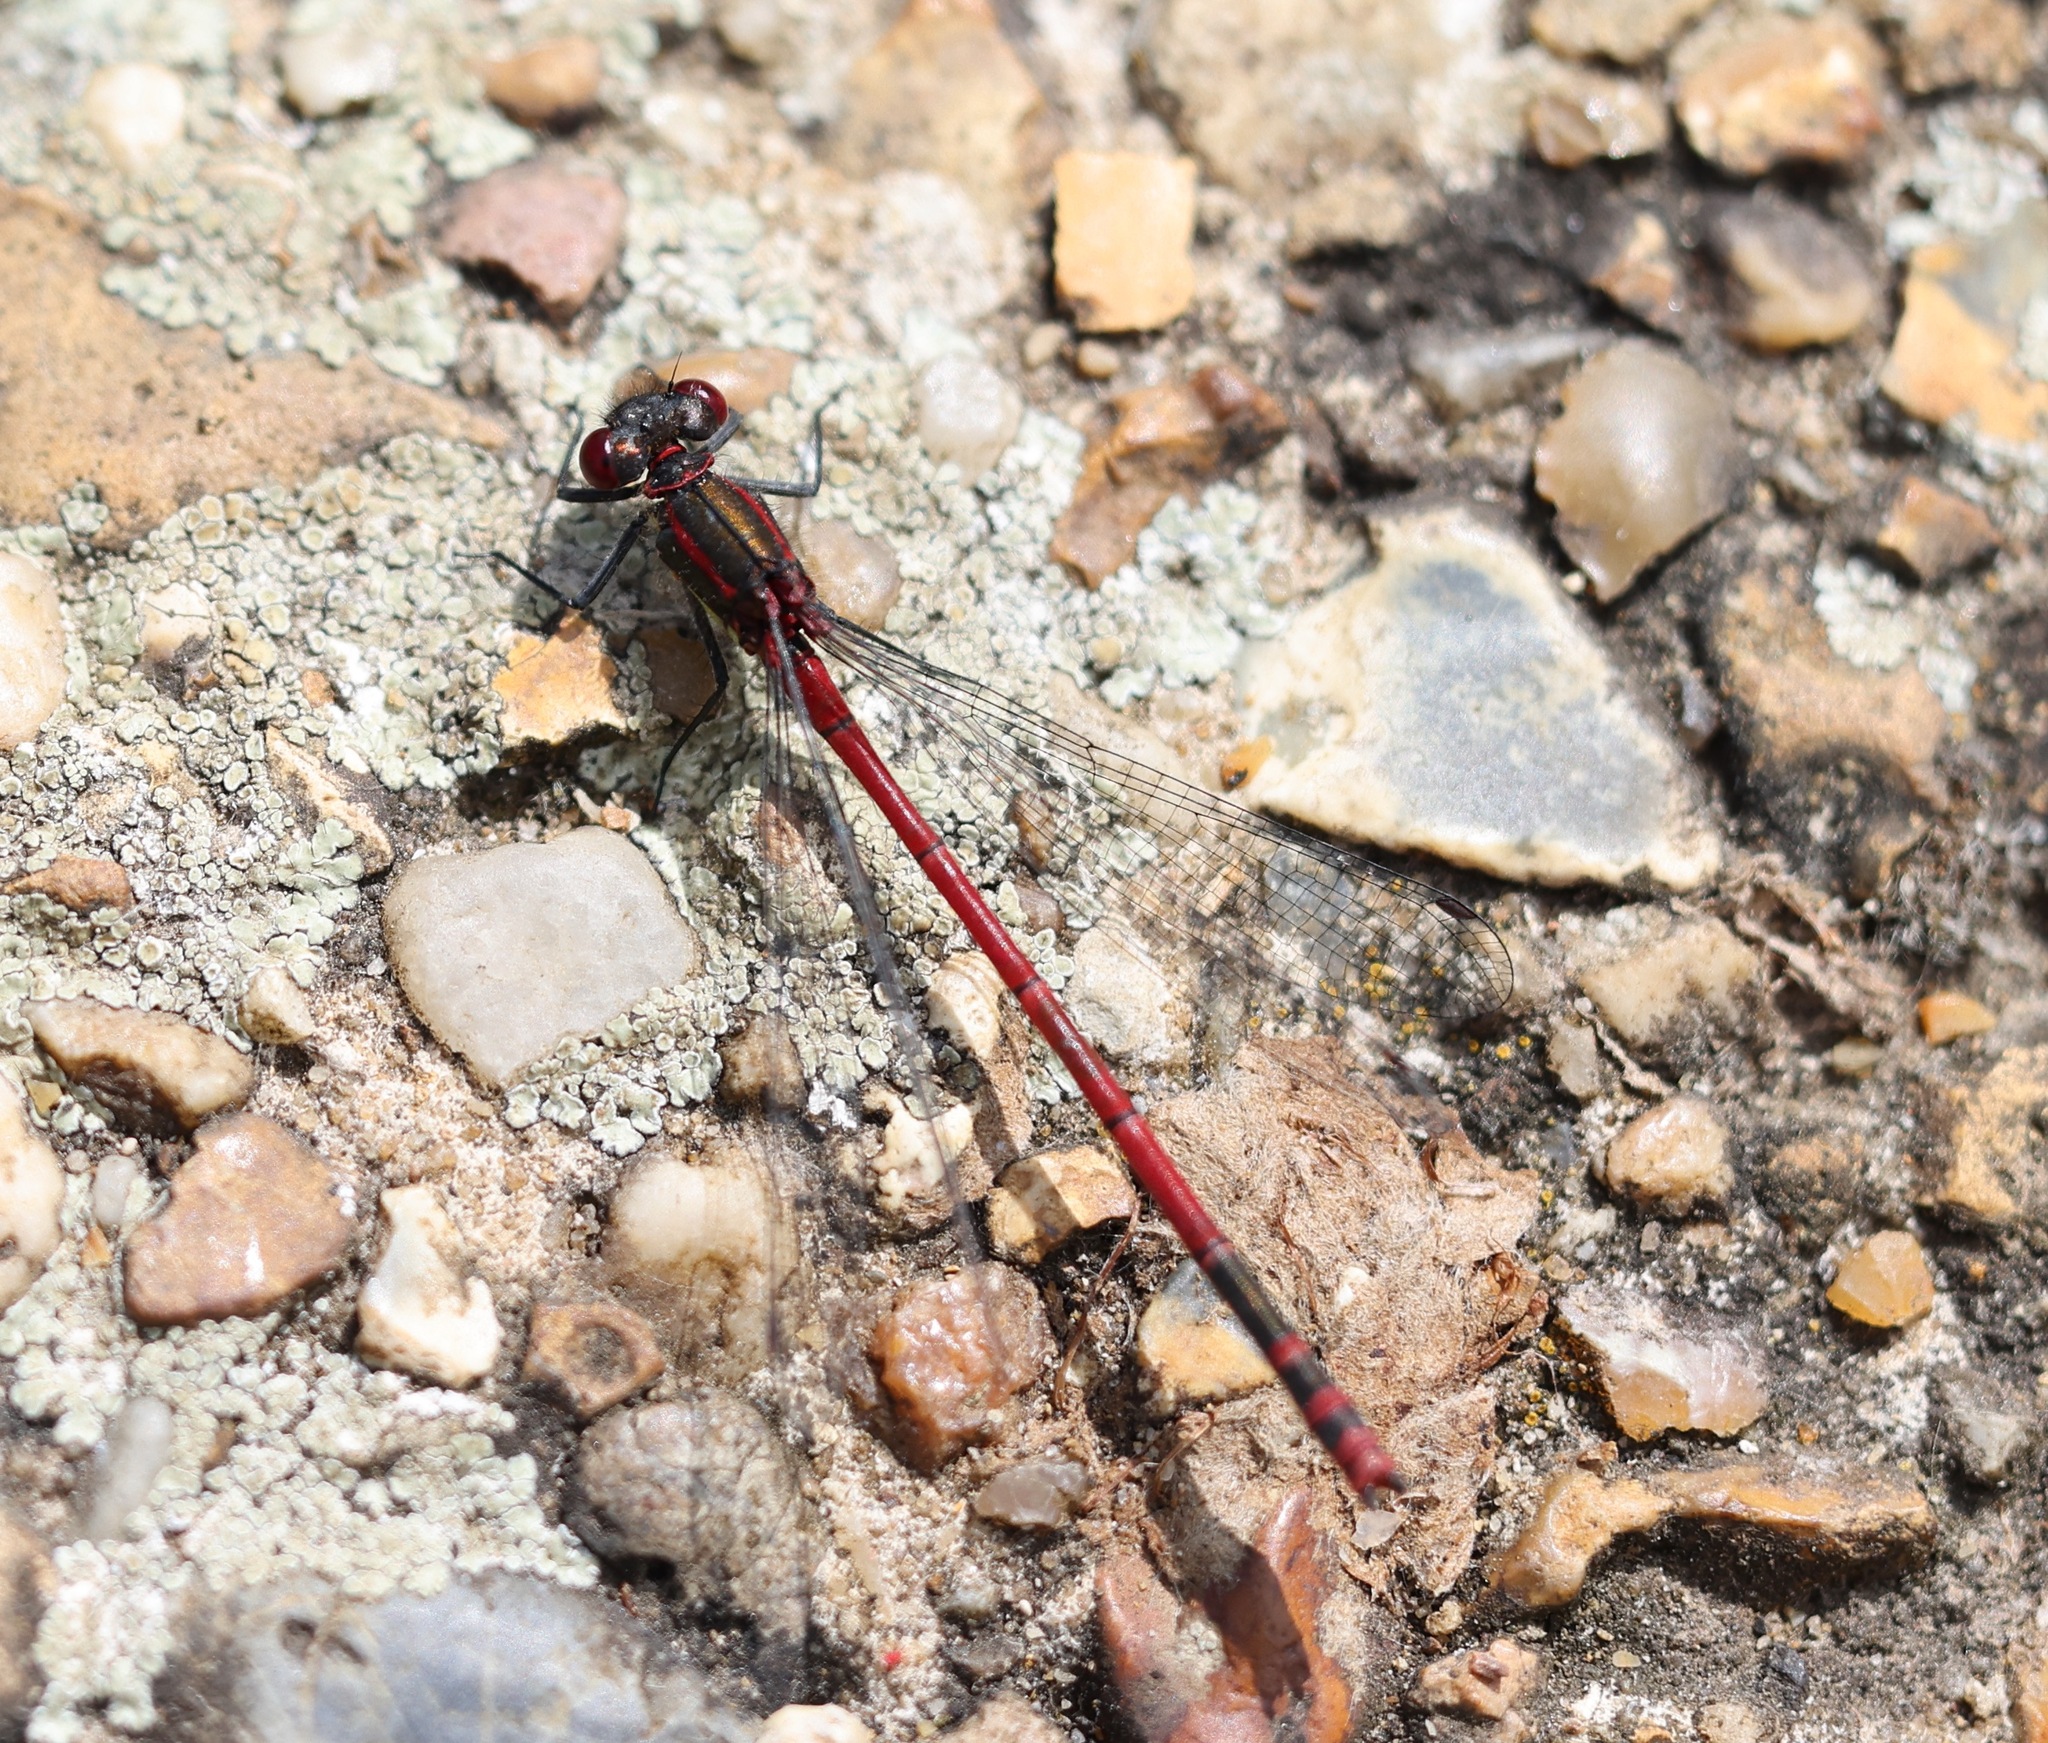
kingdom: Animalia
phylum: Arthropoda
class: Insecta
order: Odonata
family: Coenagrionidae
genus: Pyrrhosoma
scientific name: Pyrrhosoma nymphula
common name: Large red damsel
